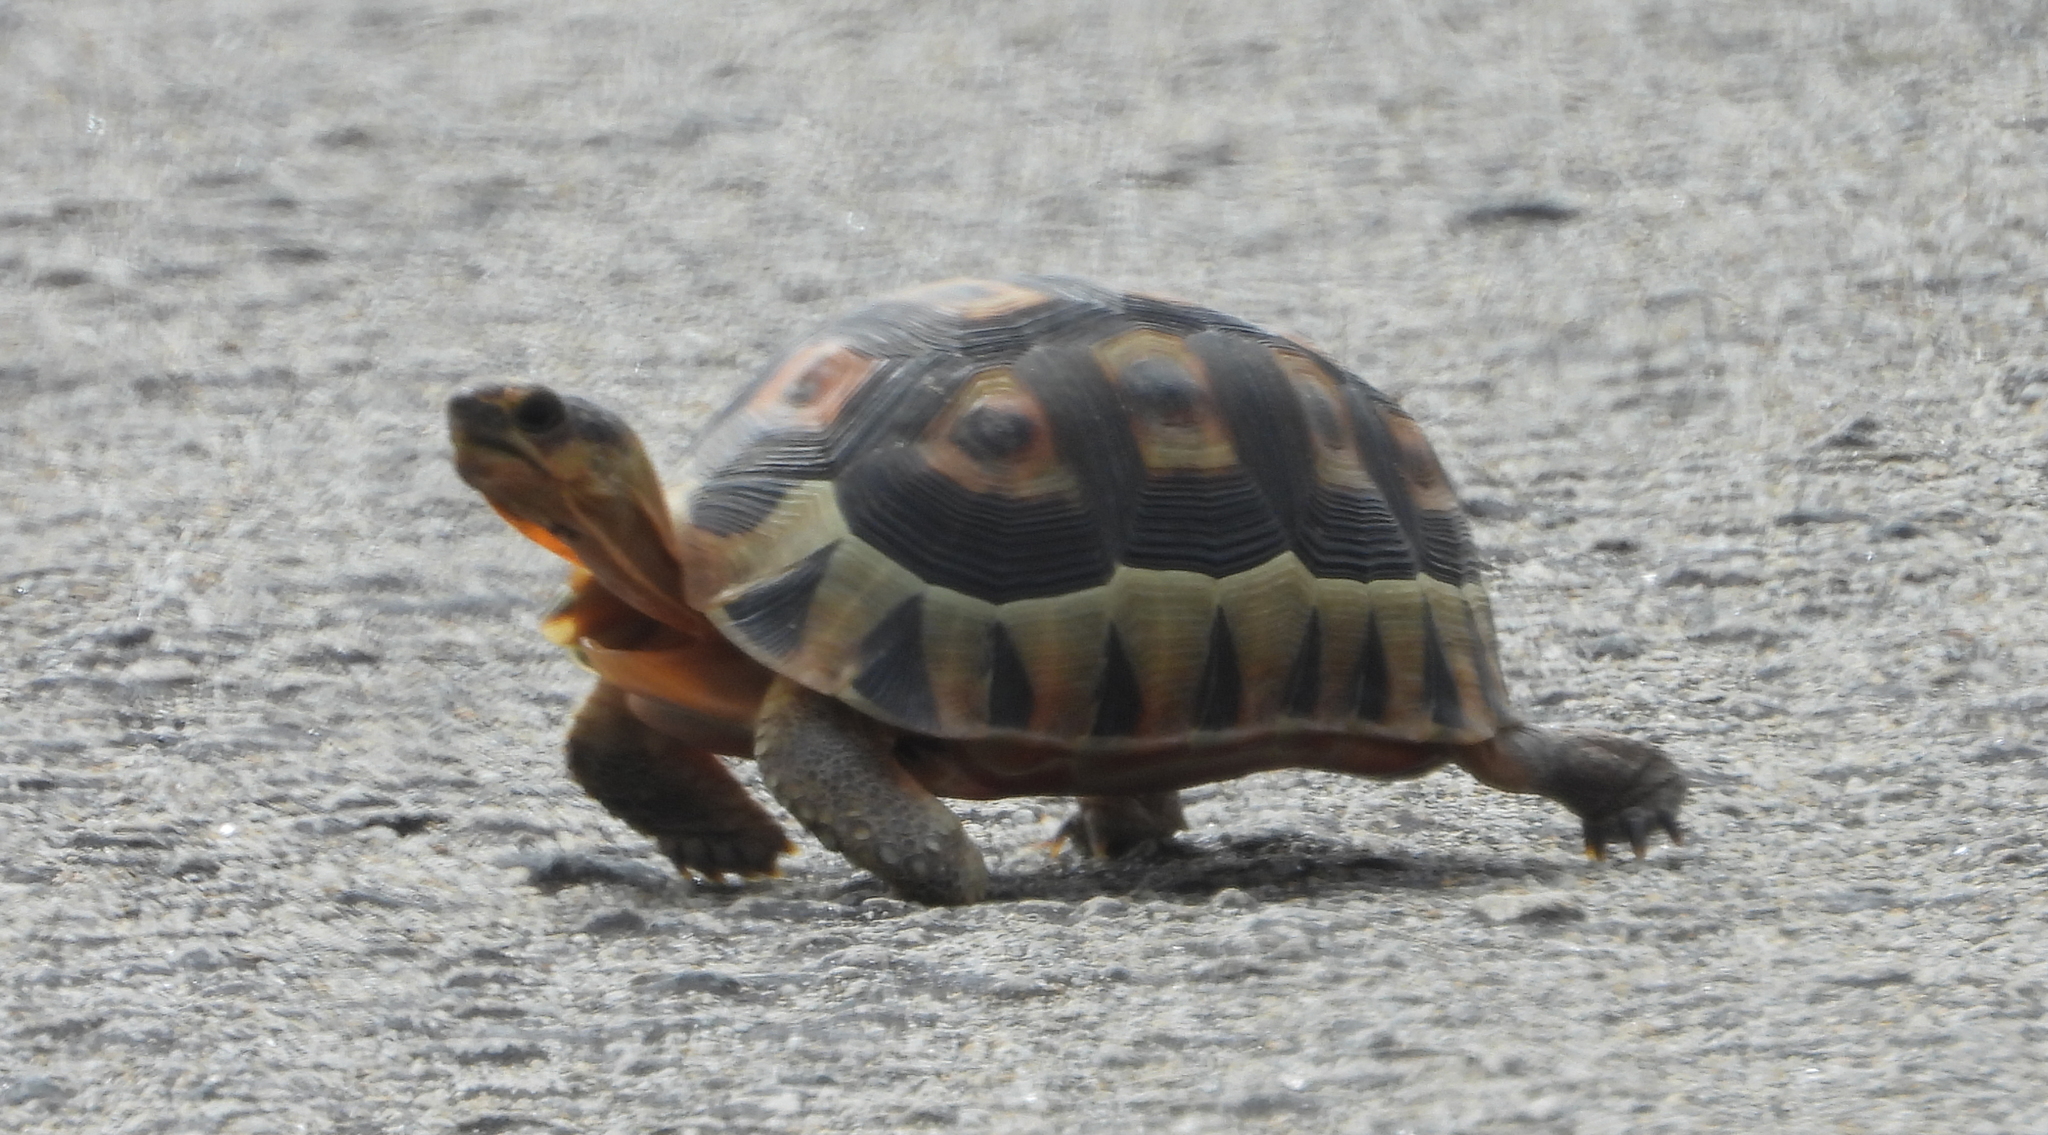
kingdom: Animalia
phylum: Chordata
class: Testudines
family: Testudinidae
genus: Chersina
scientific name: Chersina angulata
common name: South african bowsprit tortoise
